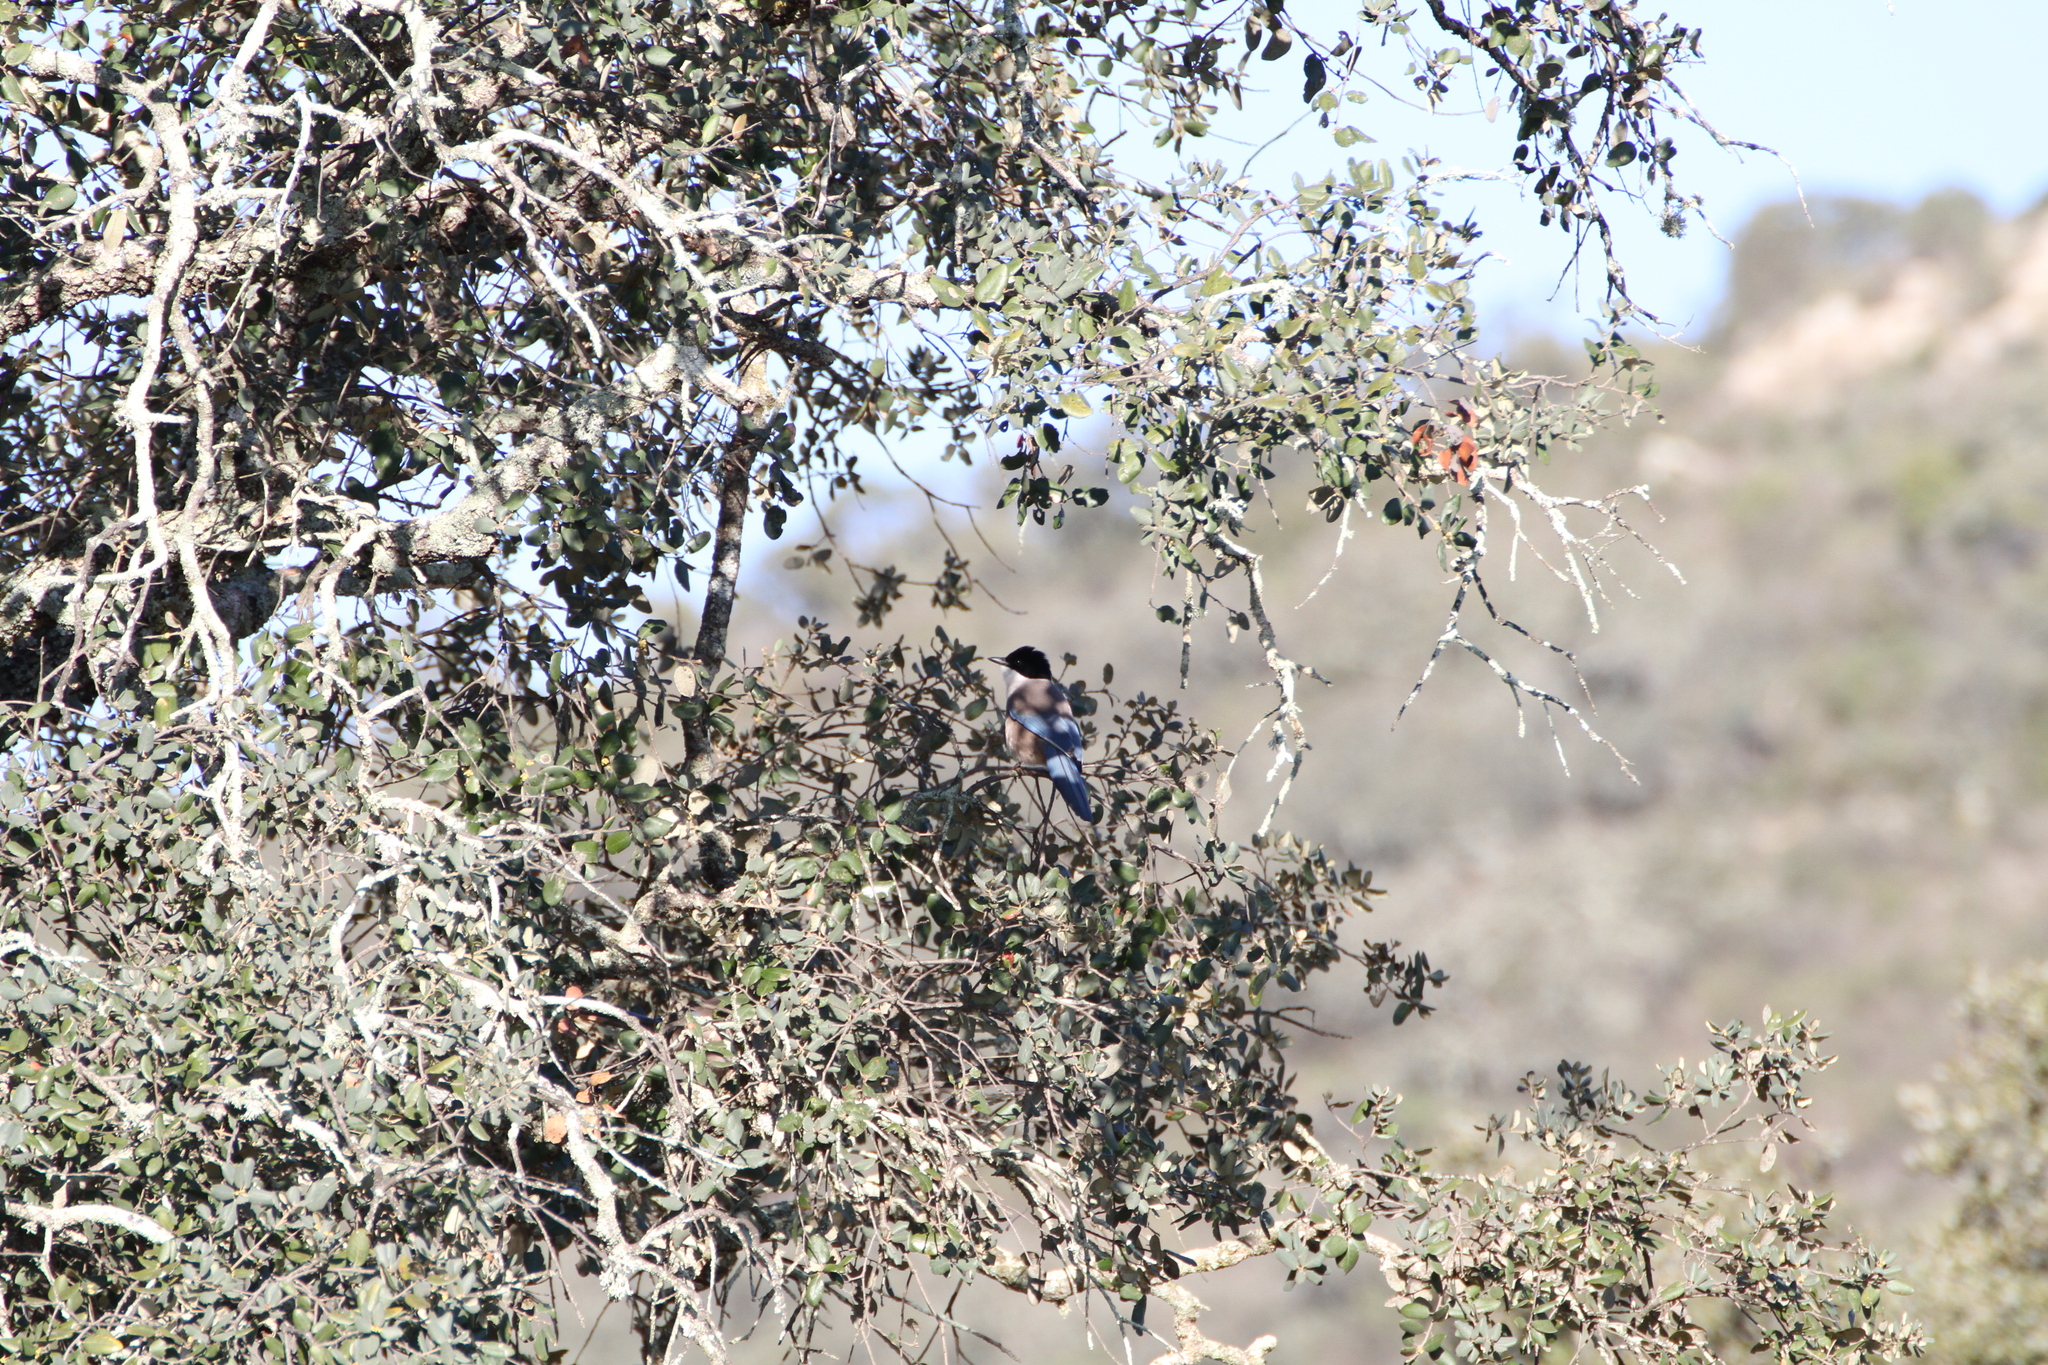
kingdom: Animalia
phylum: Chordata
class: Aves
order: Passeriformes
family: Corvidae
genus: Cyanopica
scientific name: Cyanopica cooki
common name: Iberian magpie
